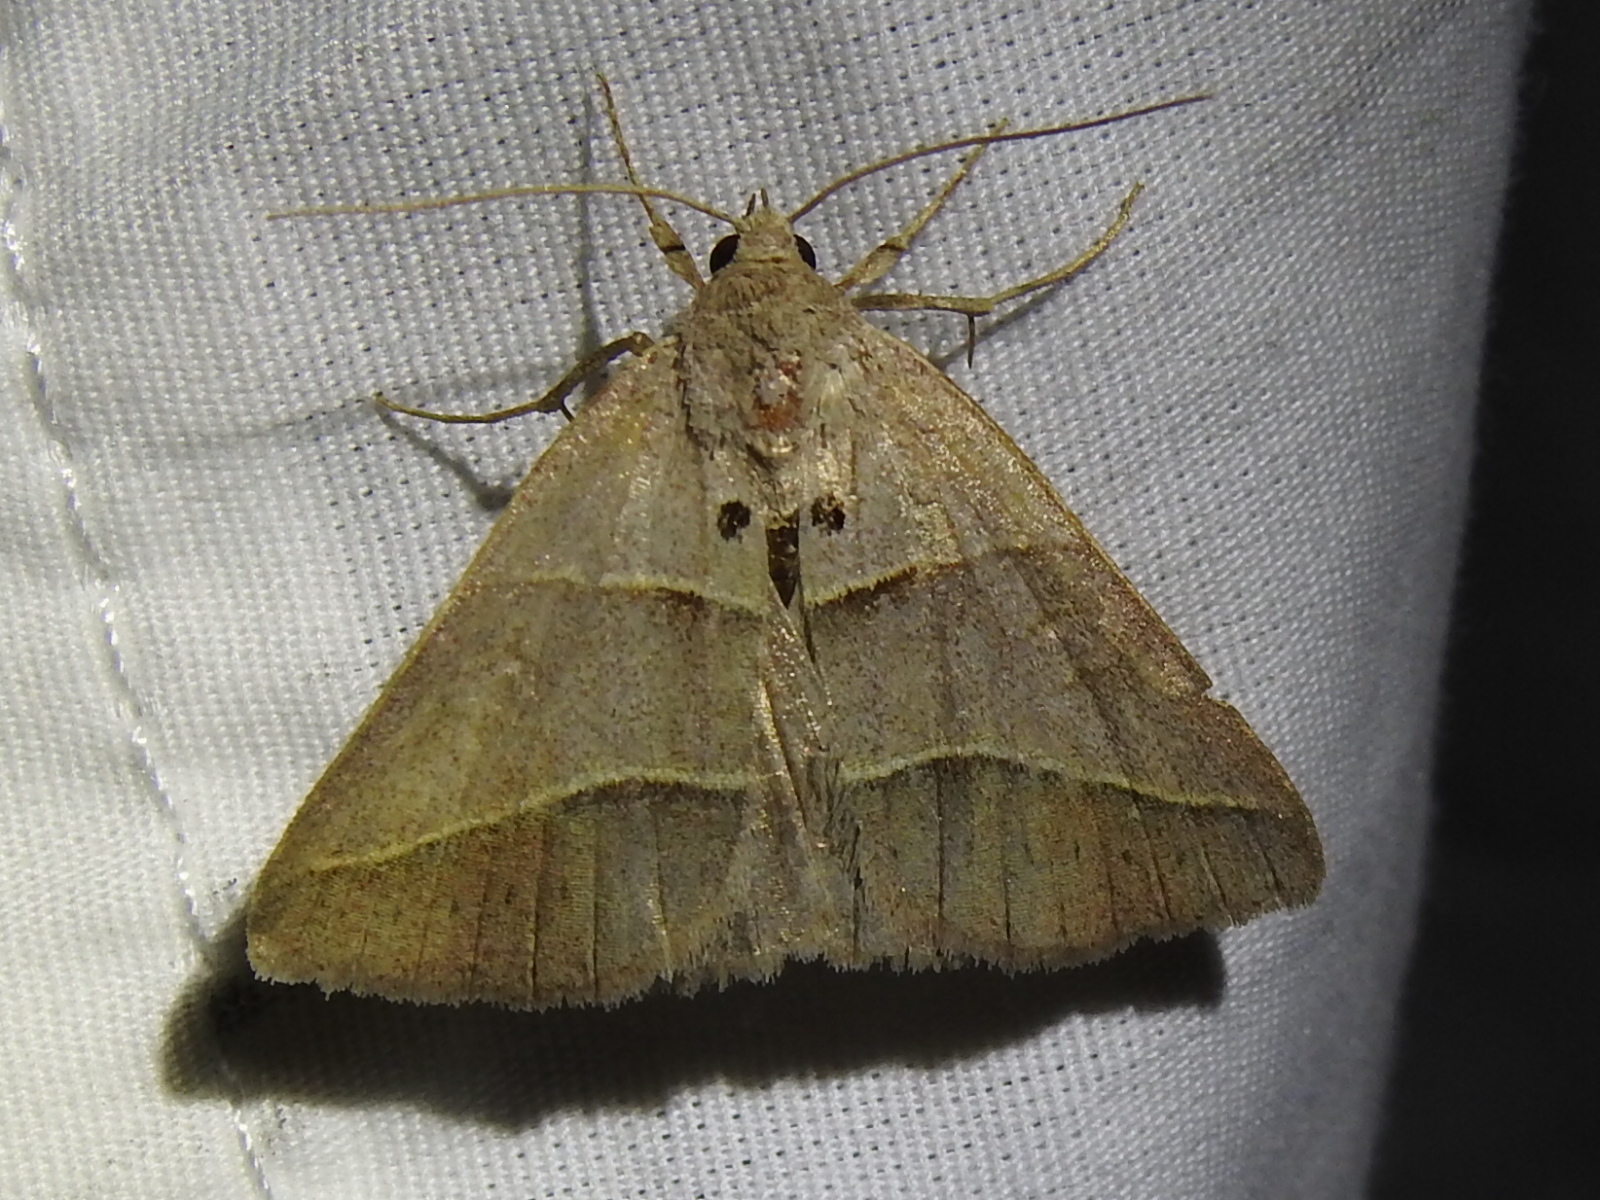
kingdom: Animalia
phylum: Arthropoda
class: Insecta
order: Lepidoptera
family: Erebidae
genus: Mocis
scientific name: Mocis texana
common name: Texas mocis moth
